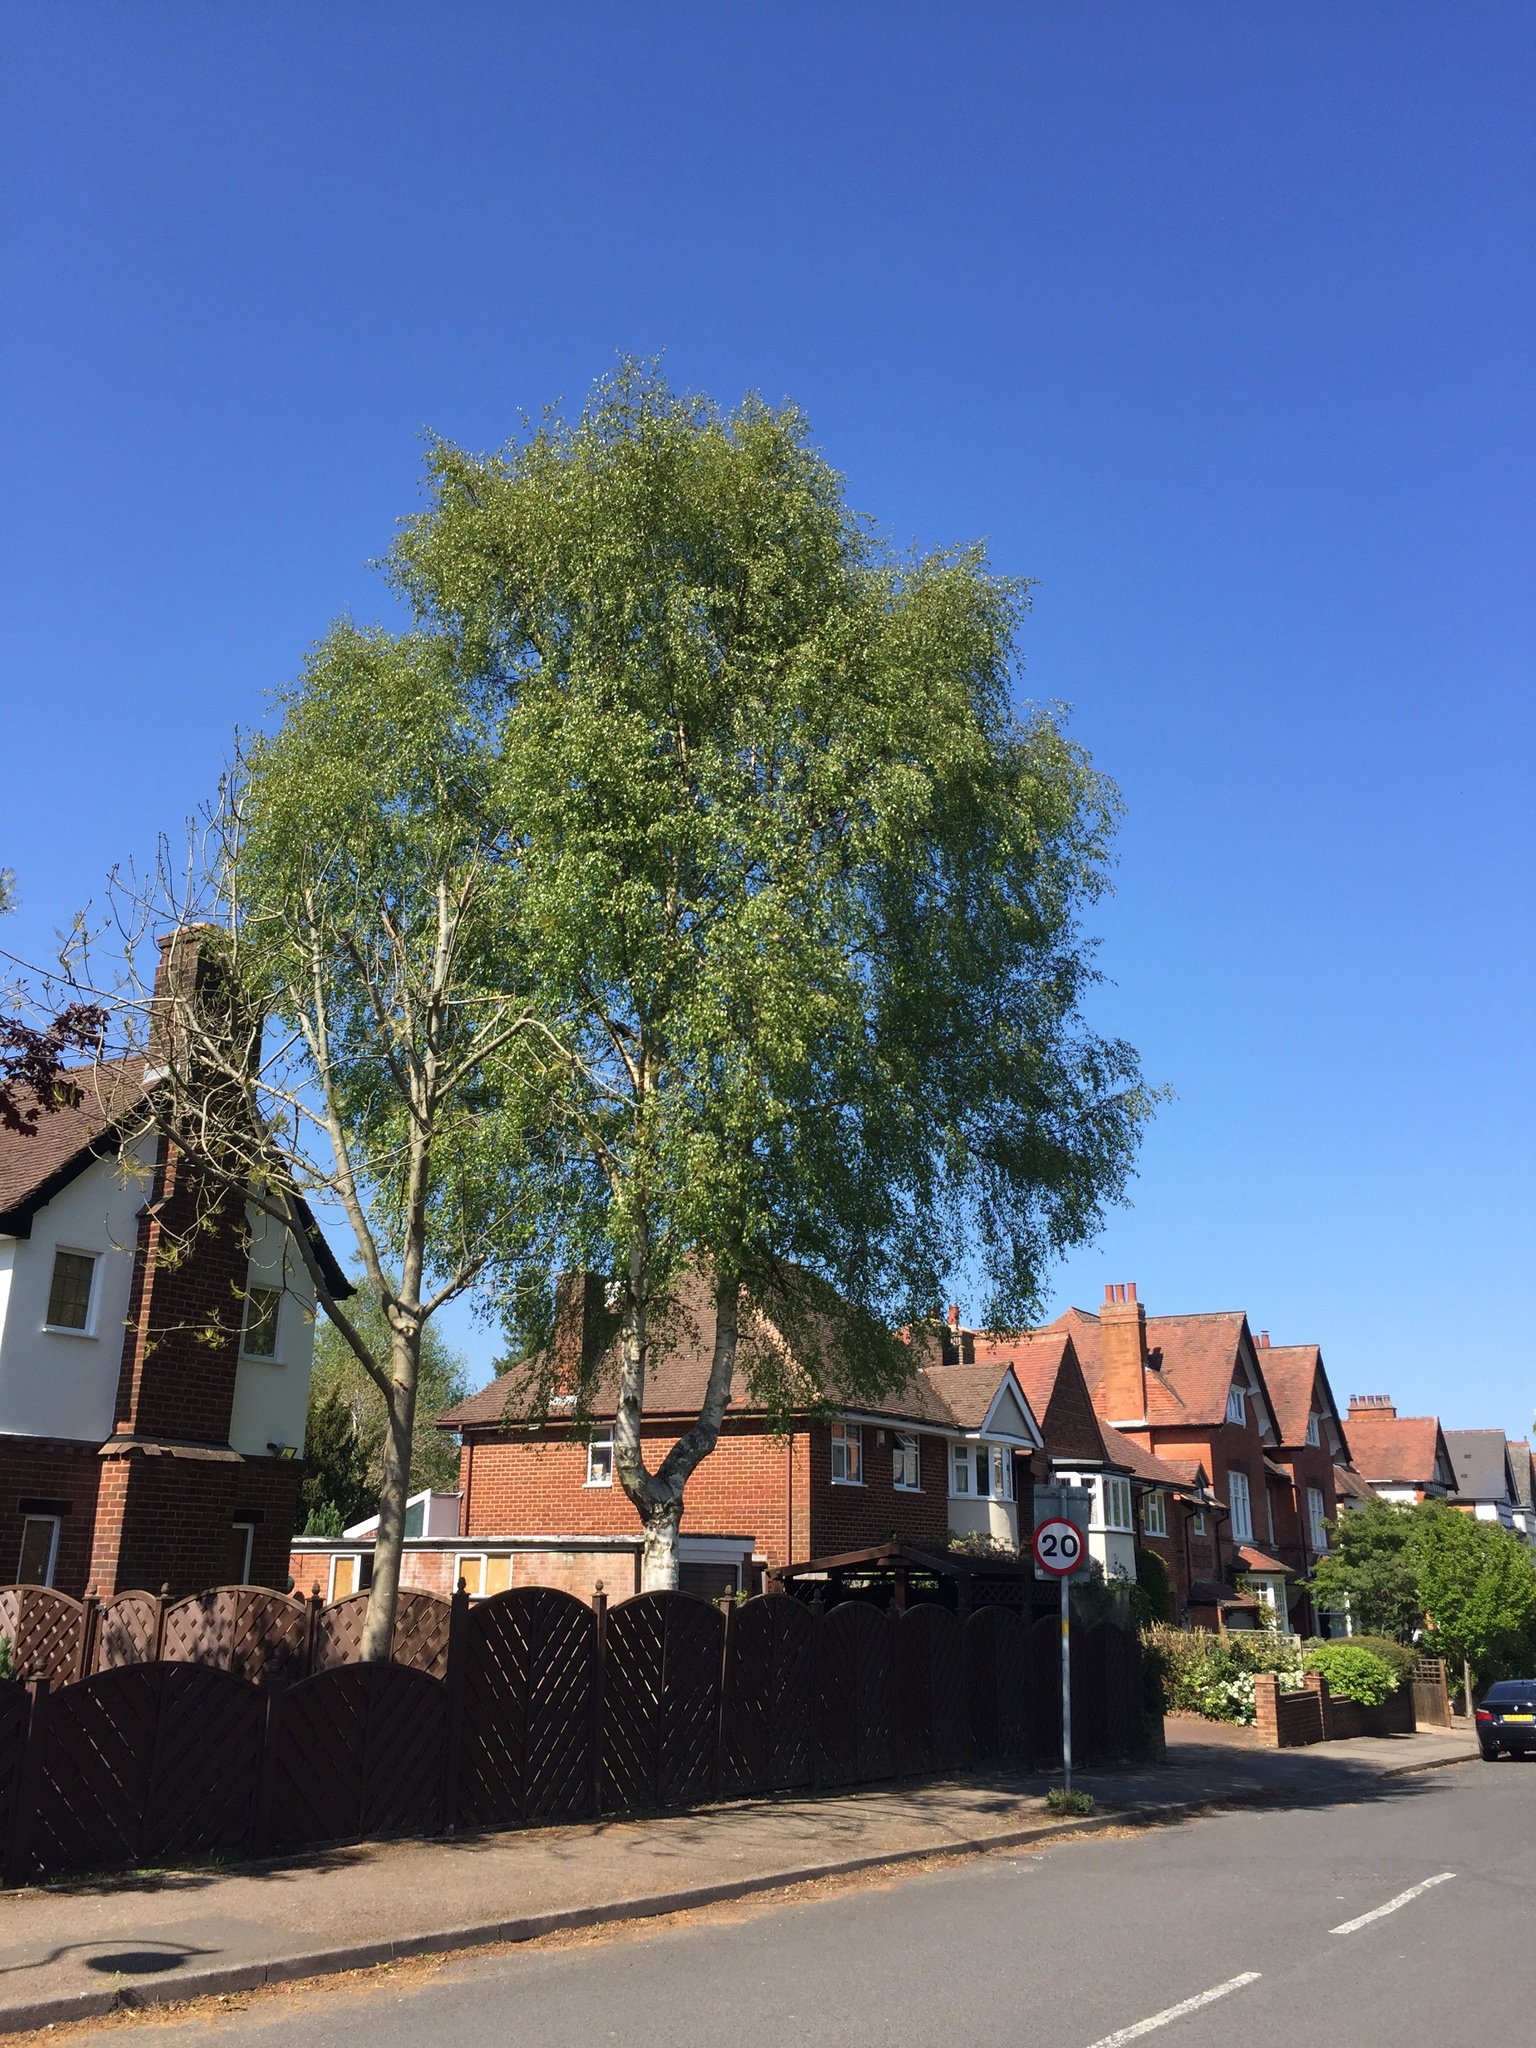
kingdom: Plantae
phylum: Tracheophyta
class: Magnoliopsida
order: Fagales
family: Betulaceae
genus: Betula
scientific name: Betula pendula
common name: Silver birch
